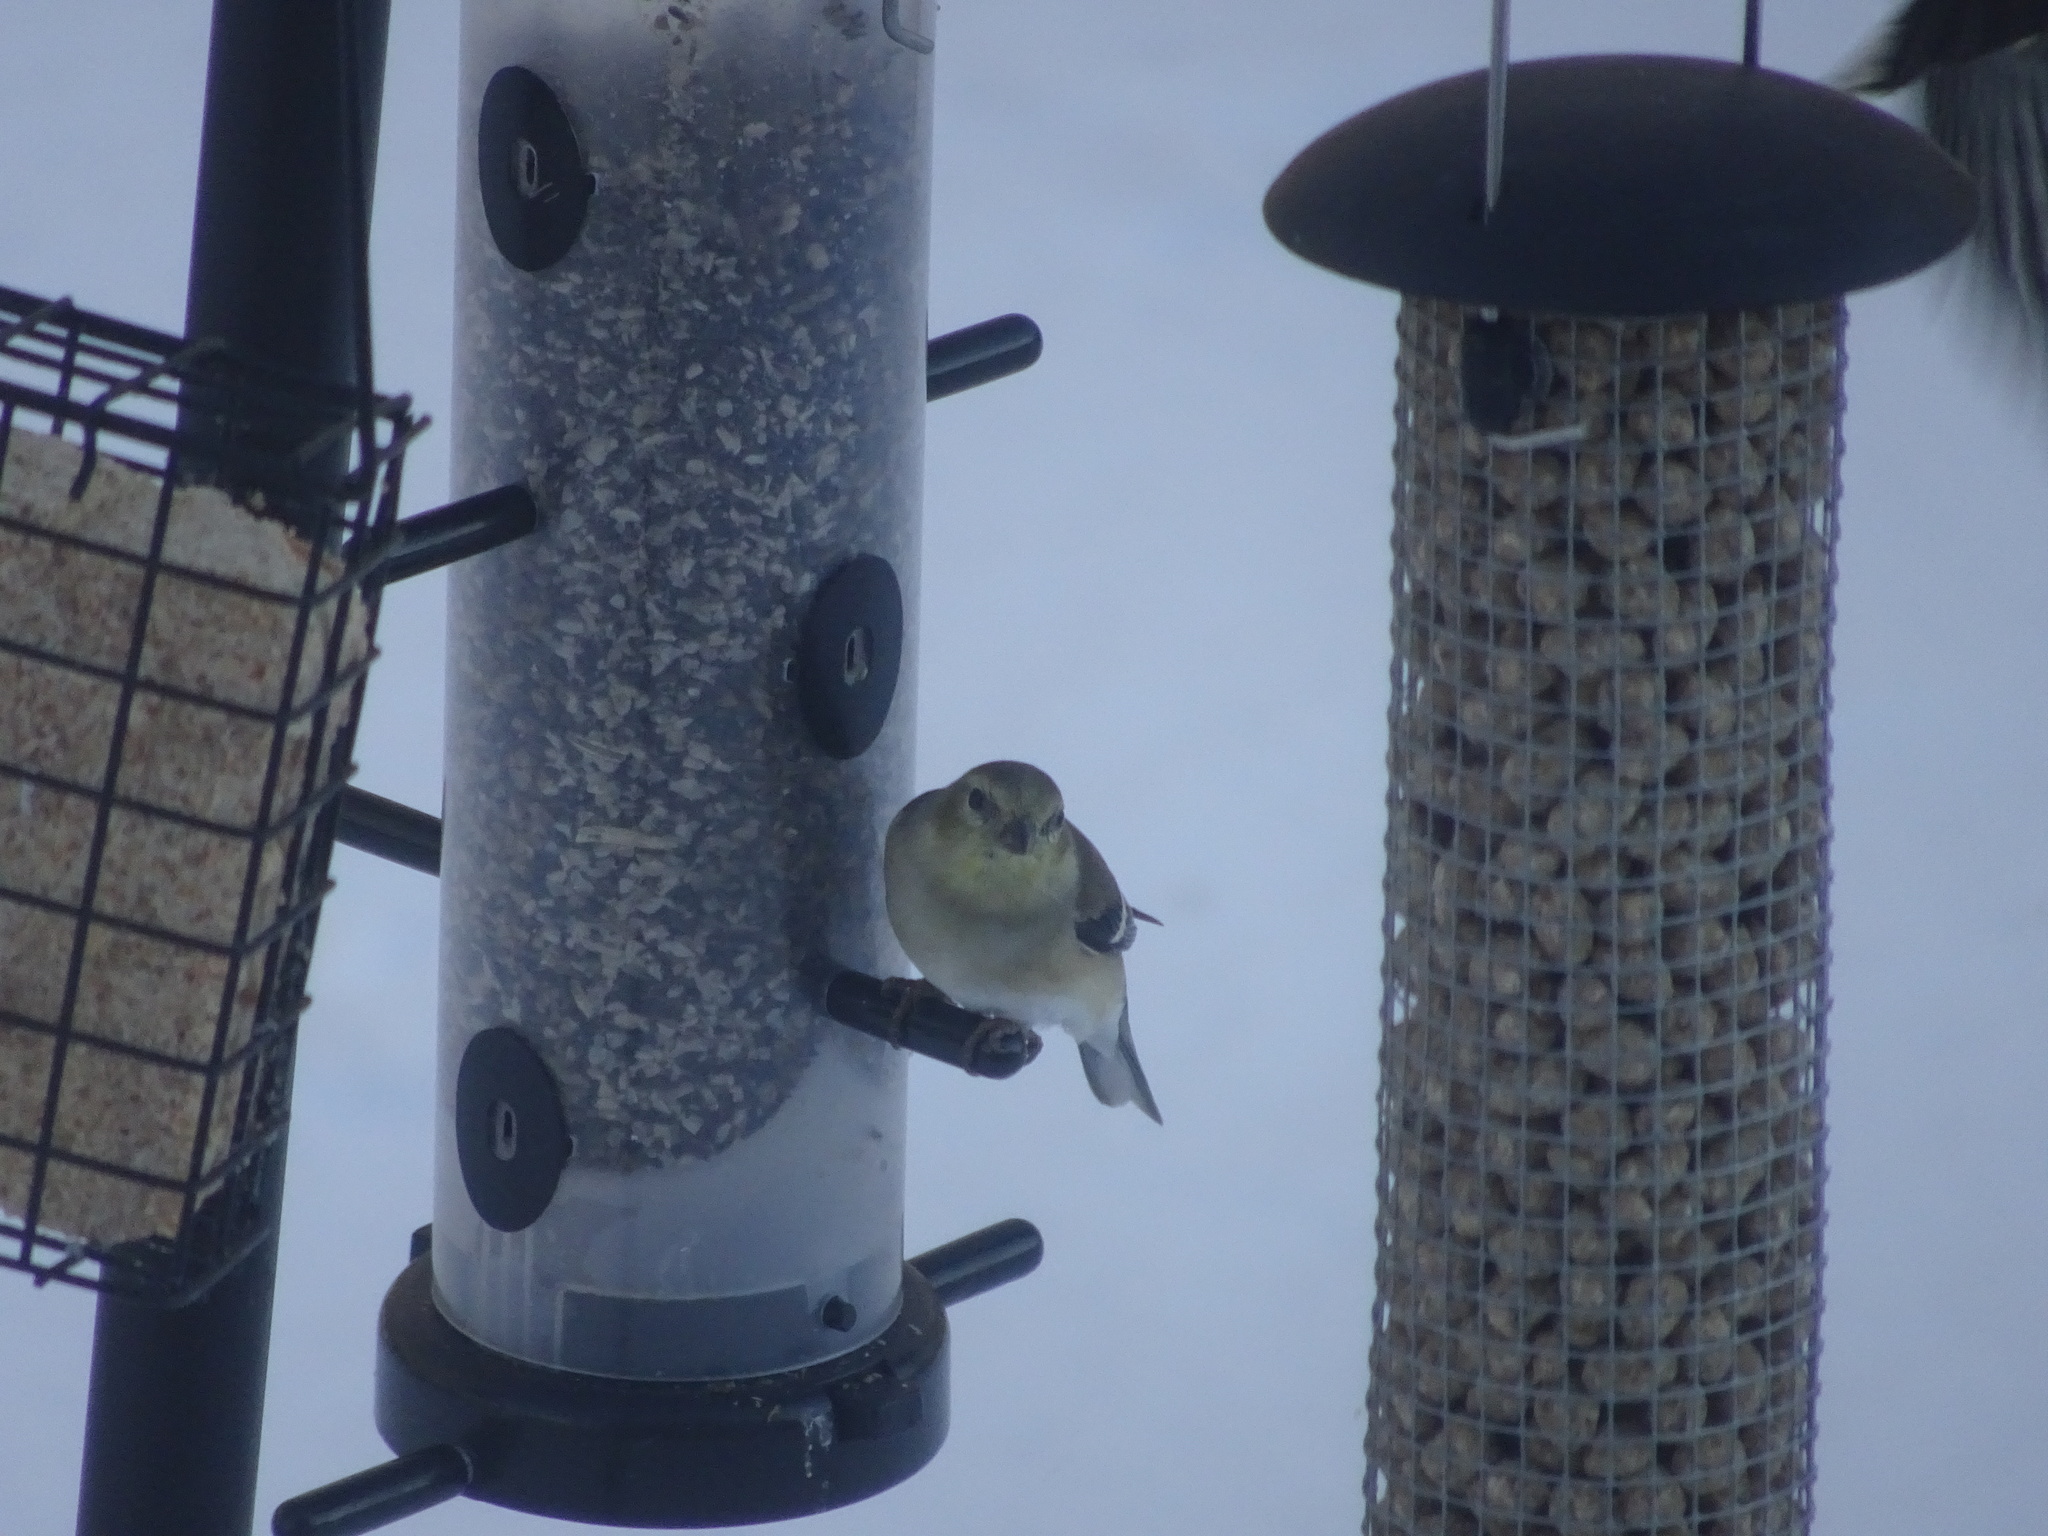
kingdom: Animalia
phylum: Chordata
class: Aves
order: Passeriformes
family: Fringillidae
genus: Spinus
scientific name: Spinus tristis
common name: American goldfinch
